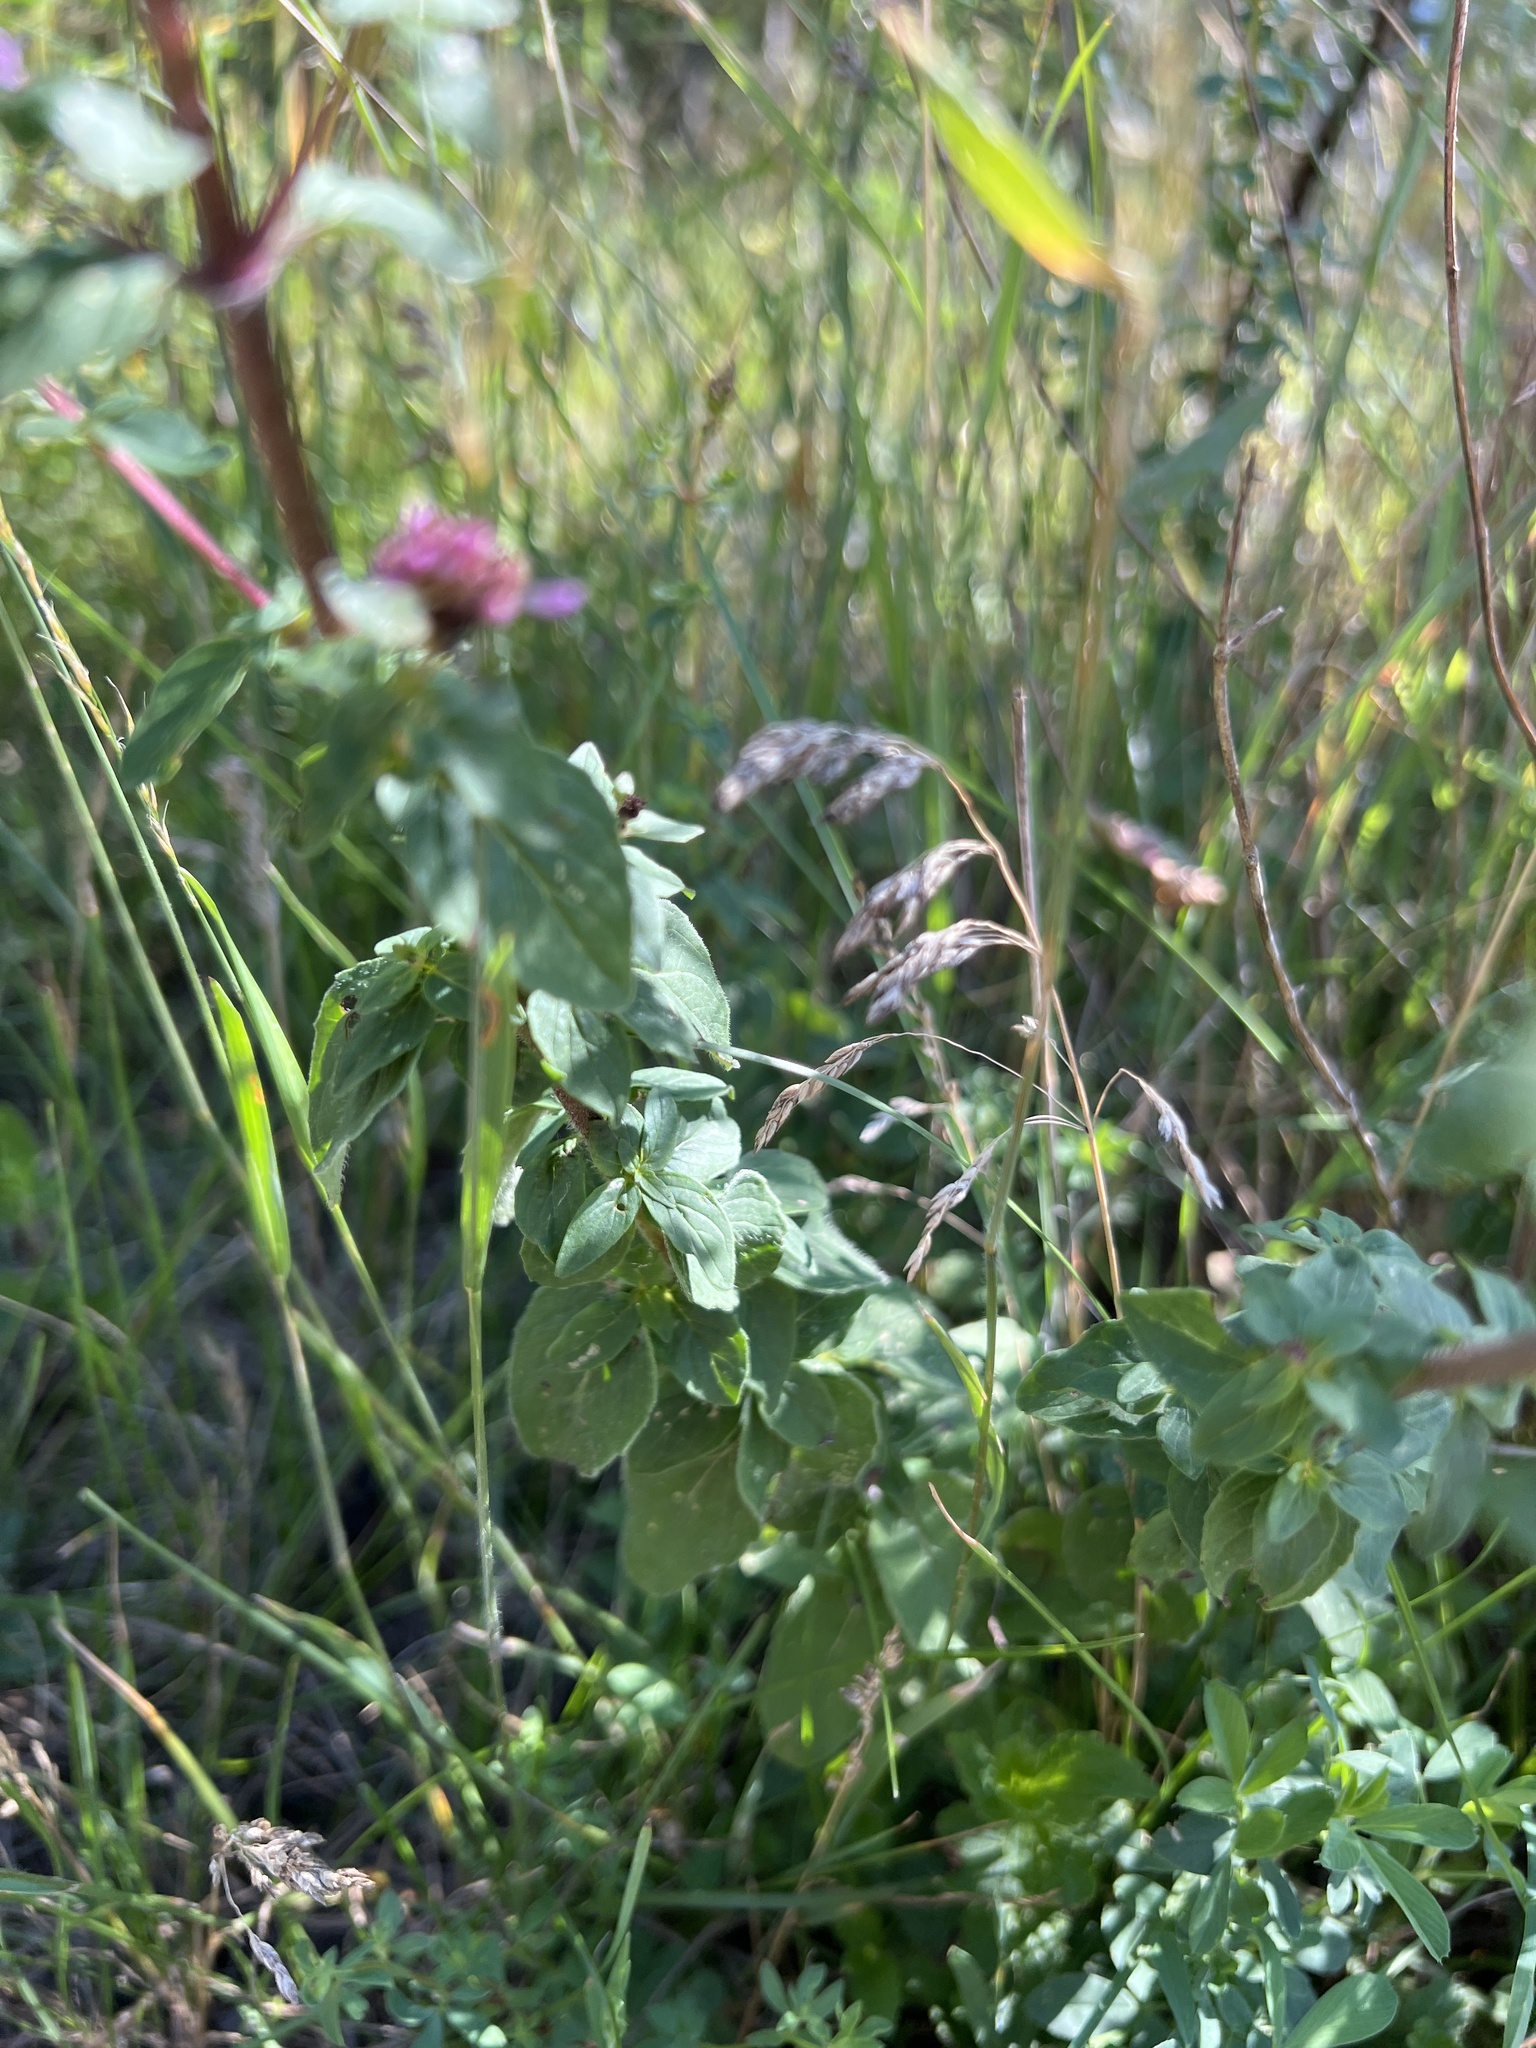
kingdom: Plantae
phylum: Tracheophyta
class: Magnoliopsida
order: Lamiales
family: Lamiaceae
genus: Origanum
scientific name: Origanum vulgare
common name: Wild marjoram
